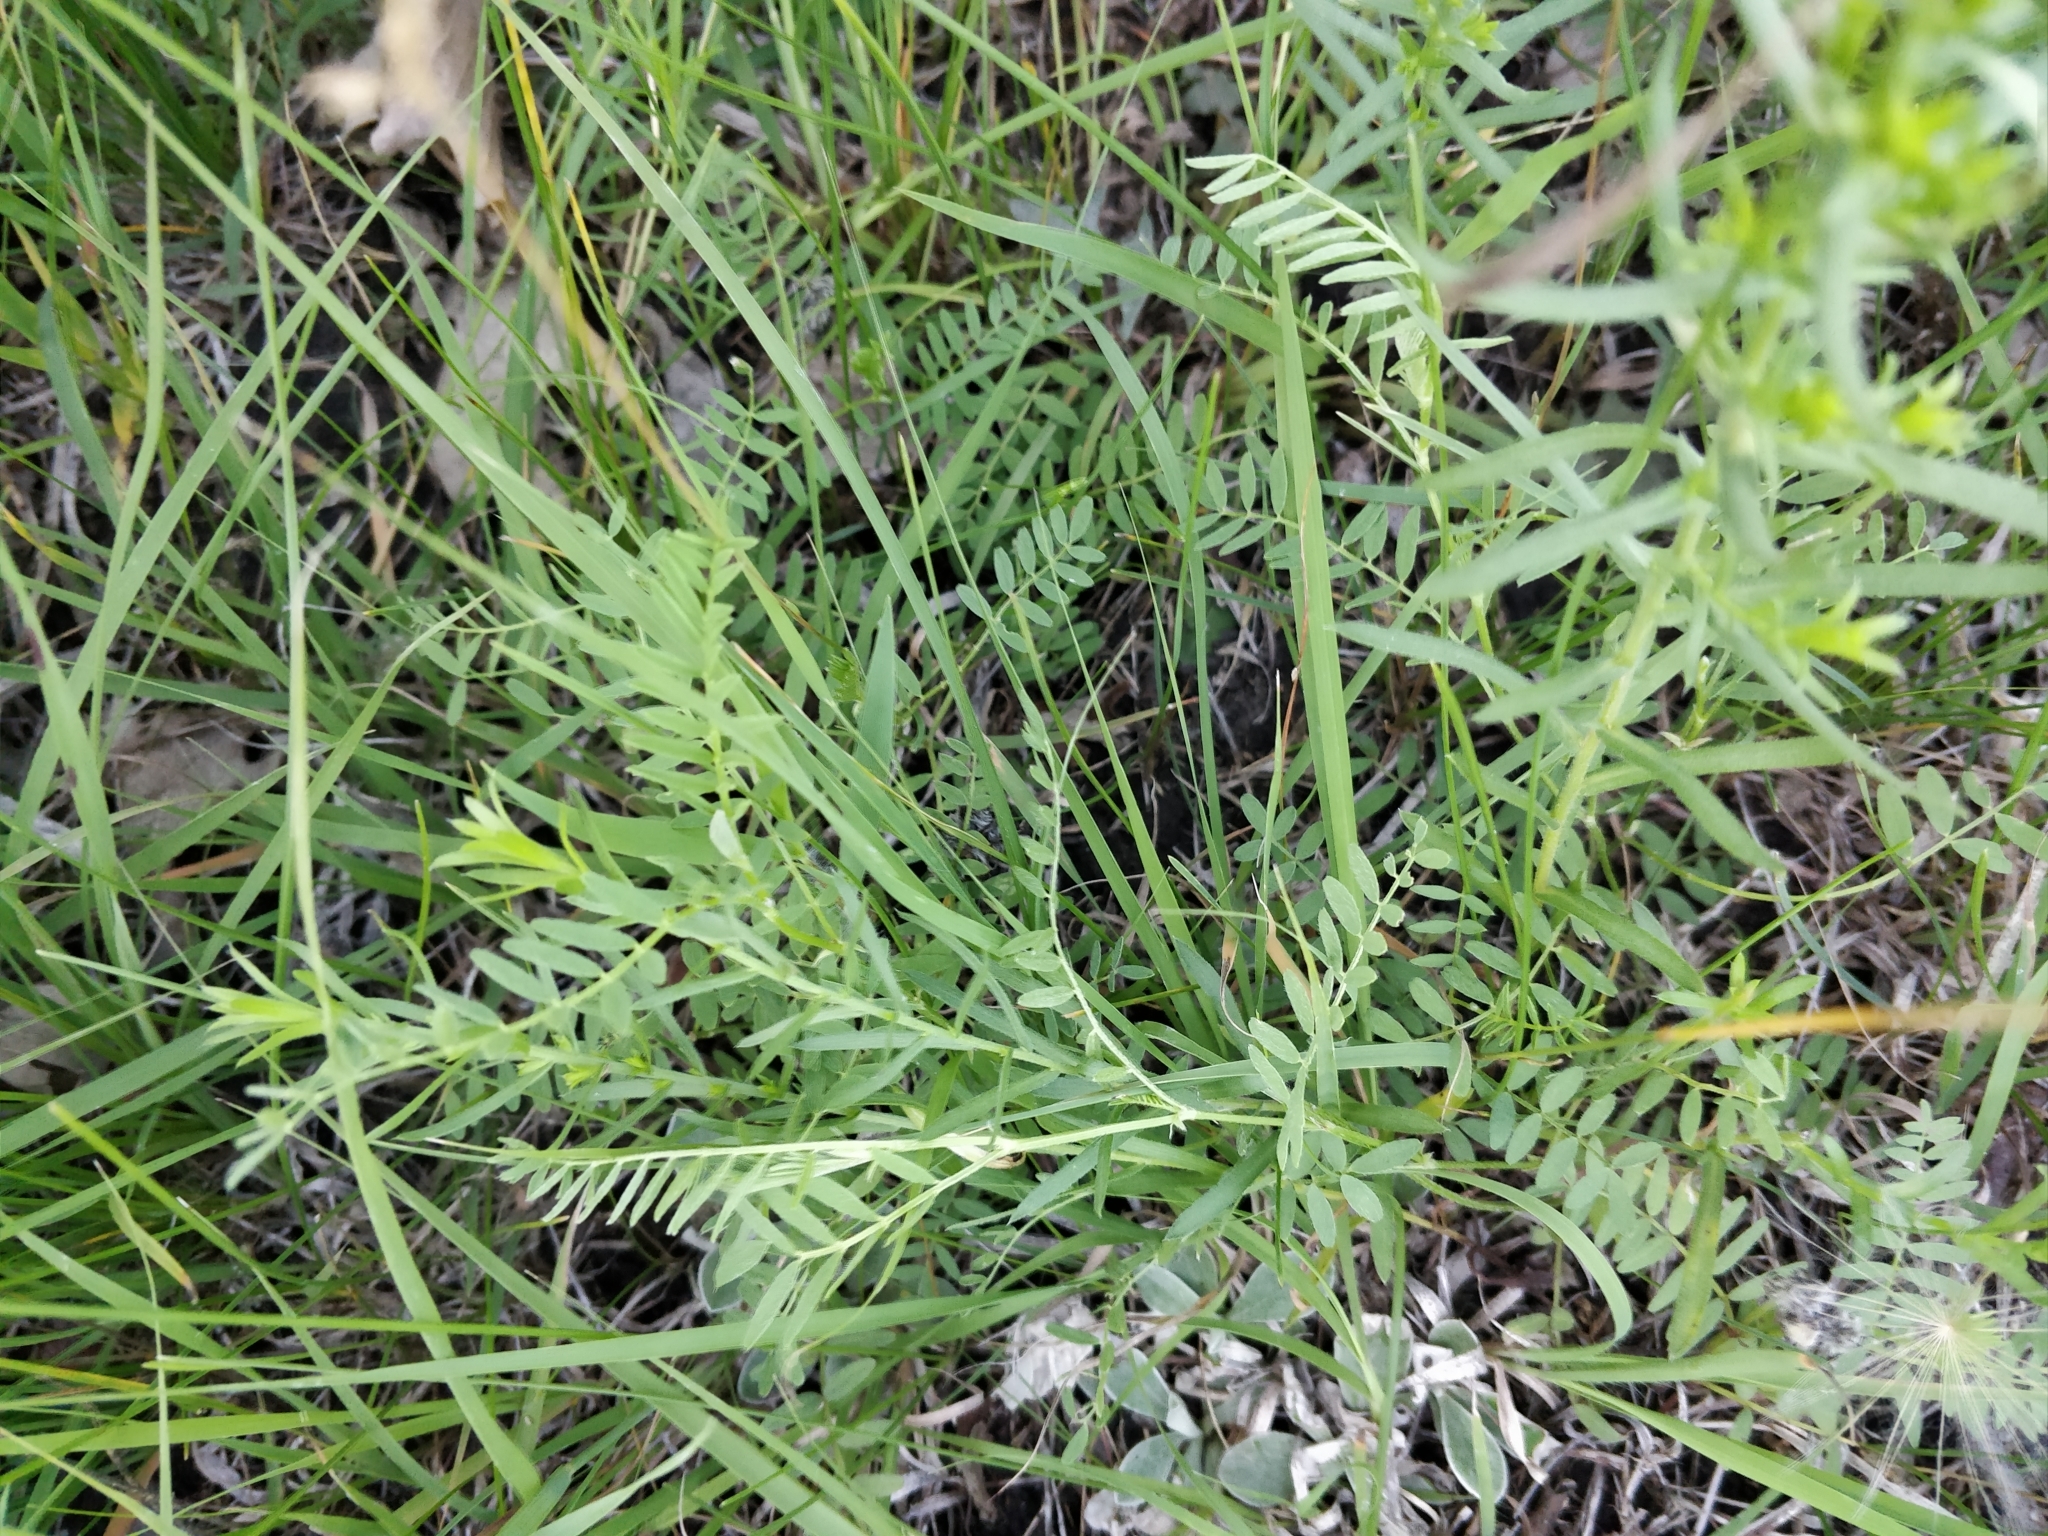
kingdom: Plantae
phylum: Tracheophyta
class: Magnoliopsida
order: Fabales
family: Fabaceae
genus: Astragalus
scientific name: Astragalus agrestis
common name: Field milk-vetch
